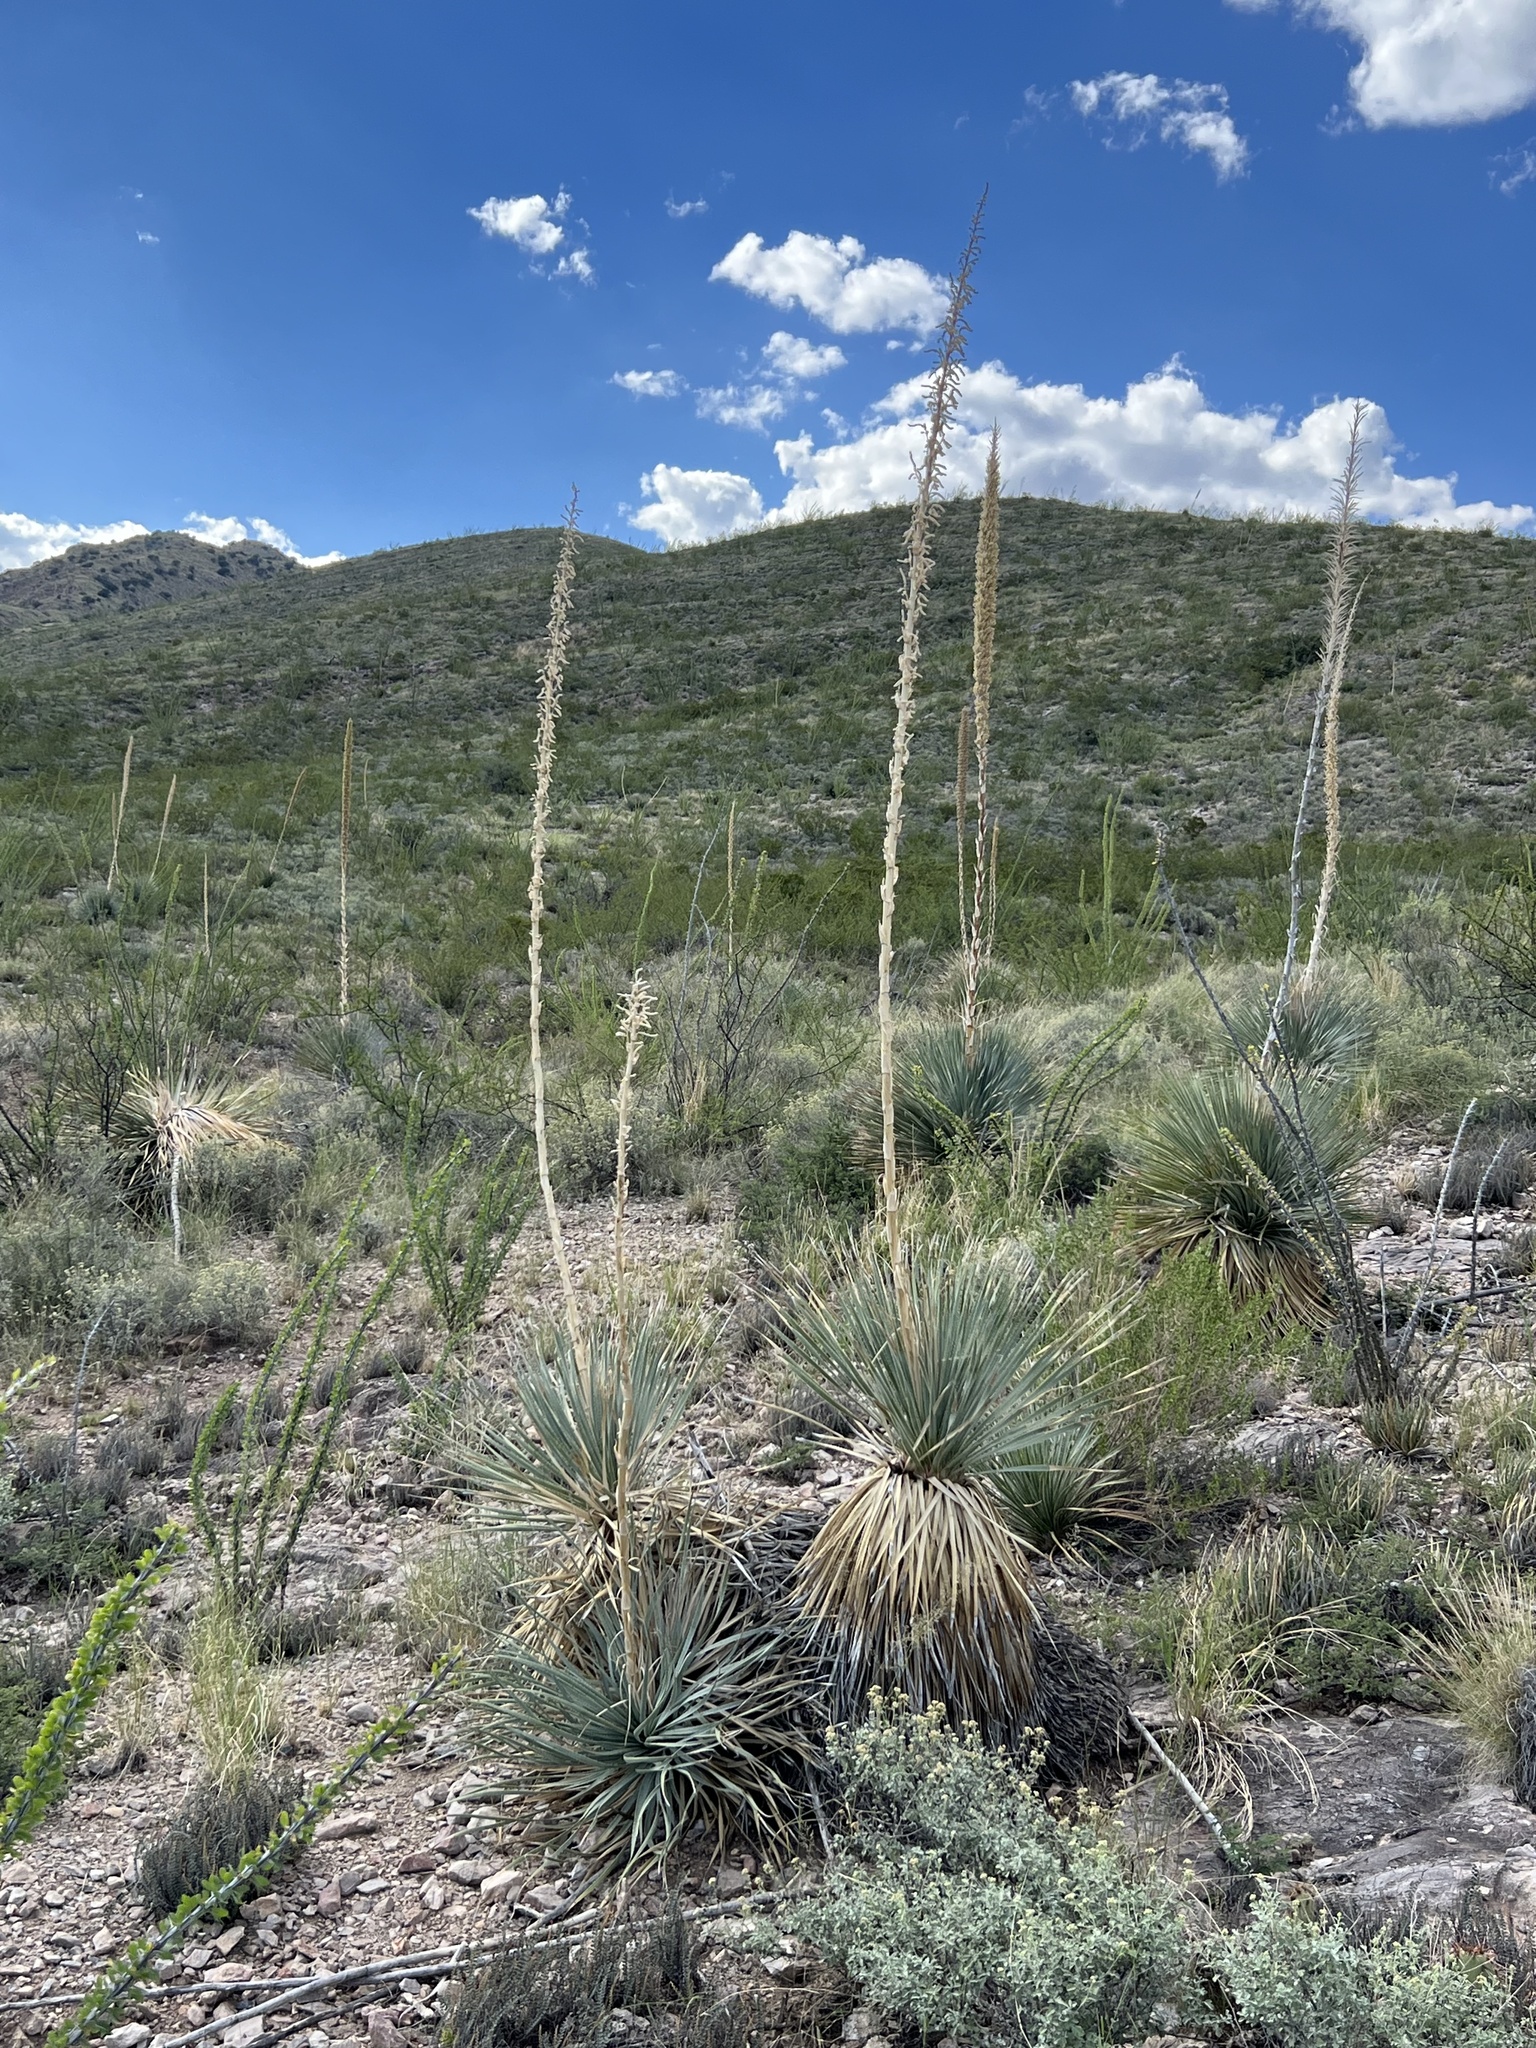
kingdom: Plantae
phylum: Tracheophyta
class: Liliopsida
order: Asparagales
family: Asparagaceae
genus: Dasylirion
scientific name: Dasylirion wheeleri
